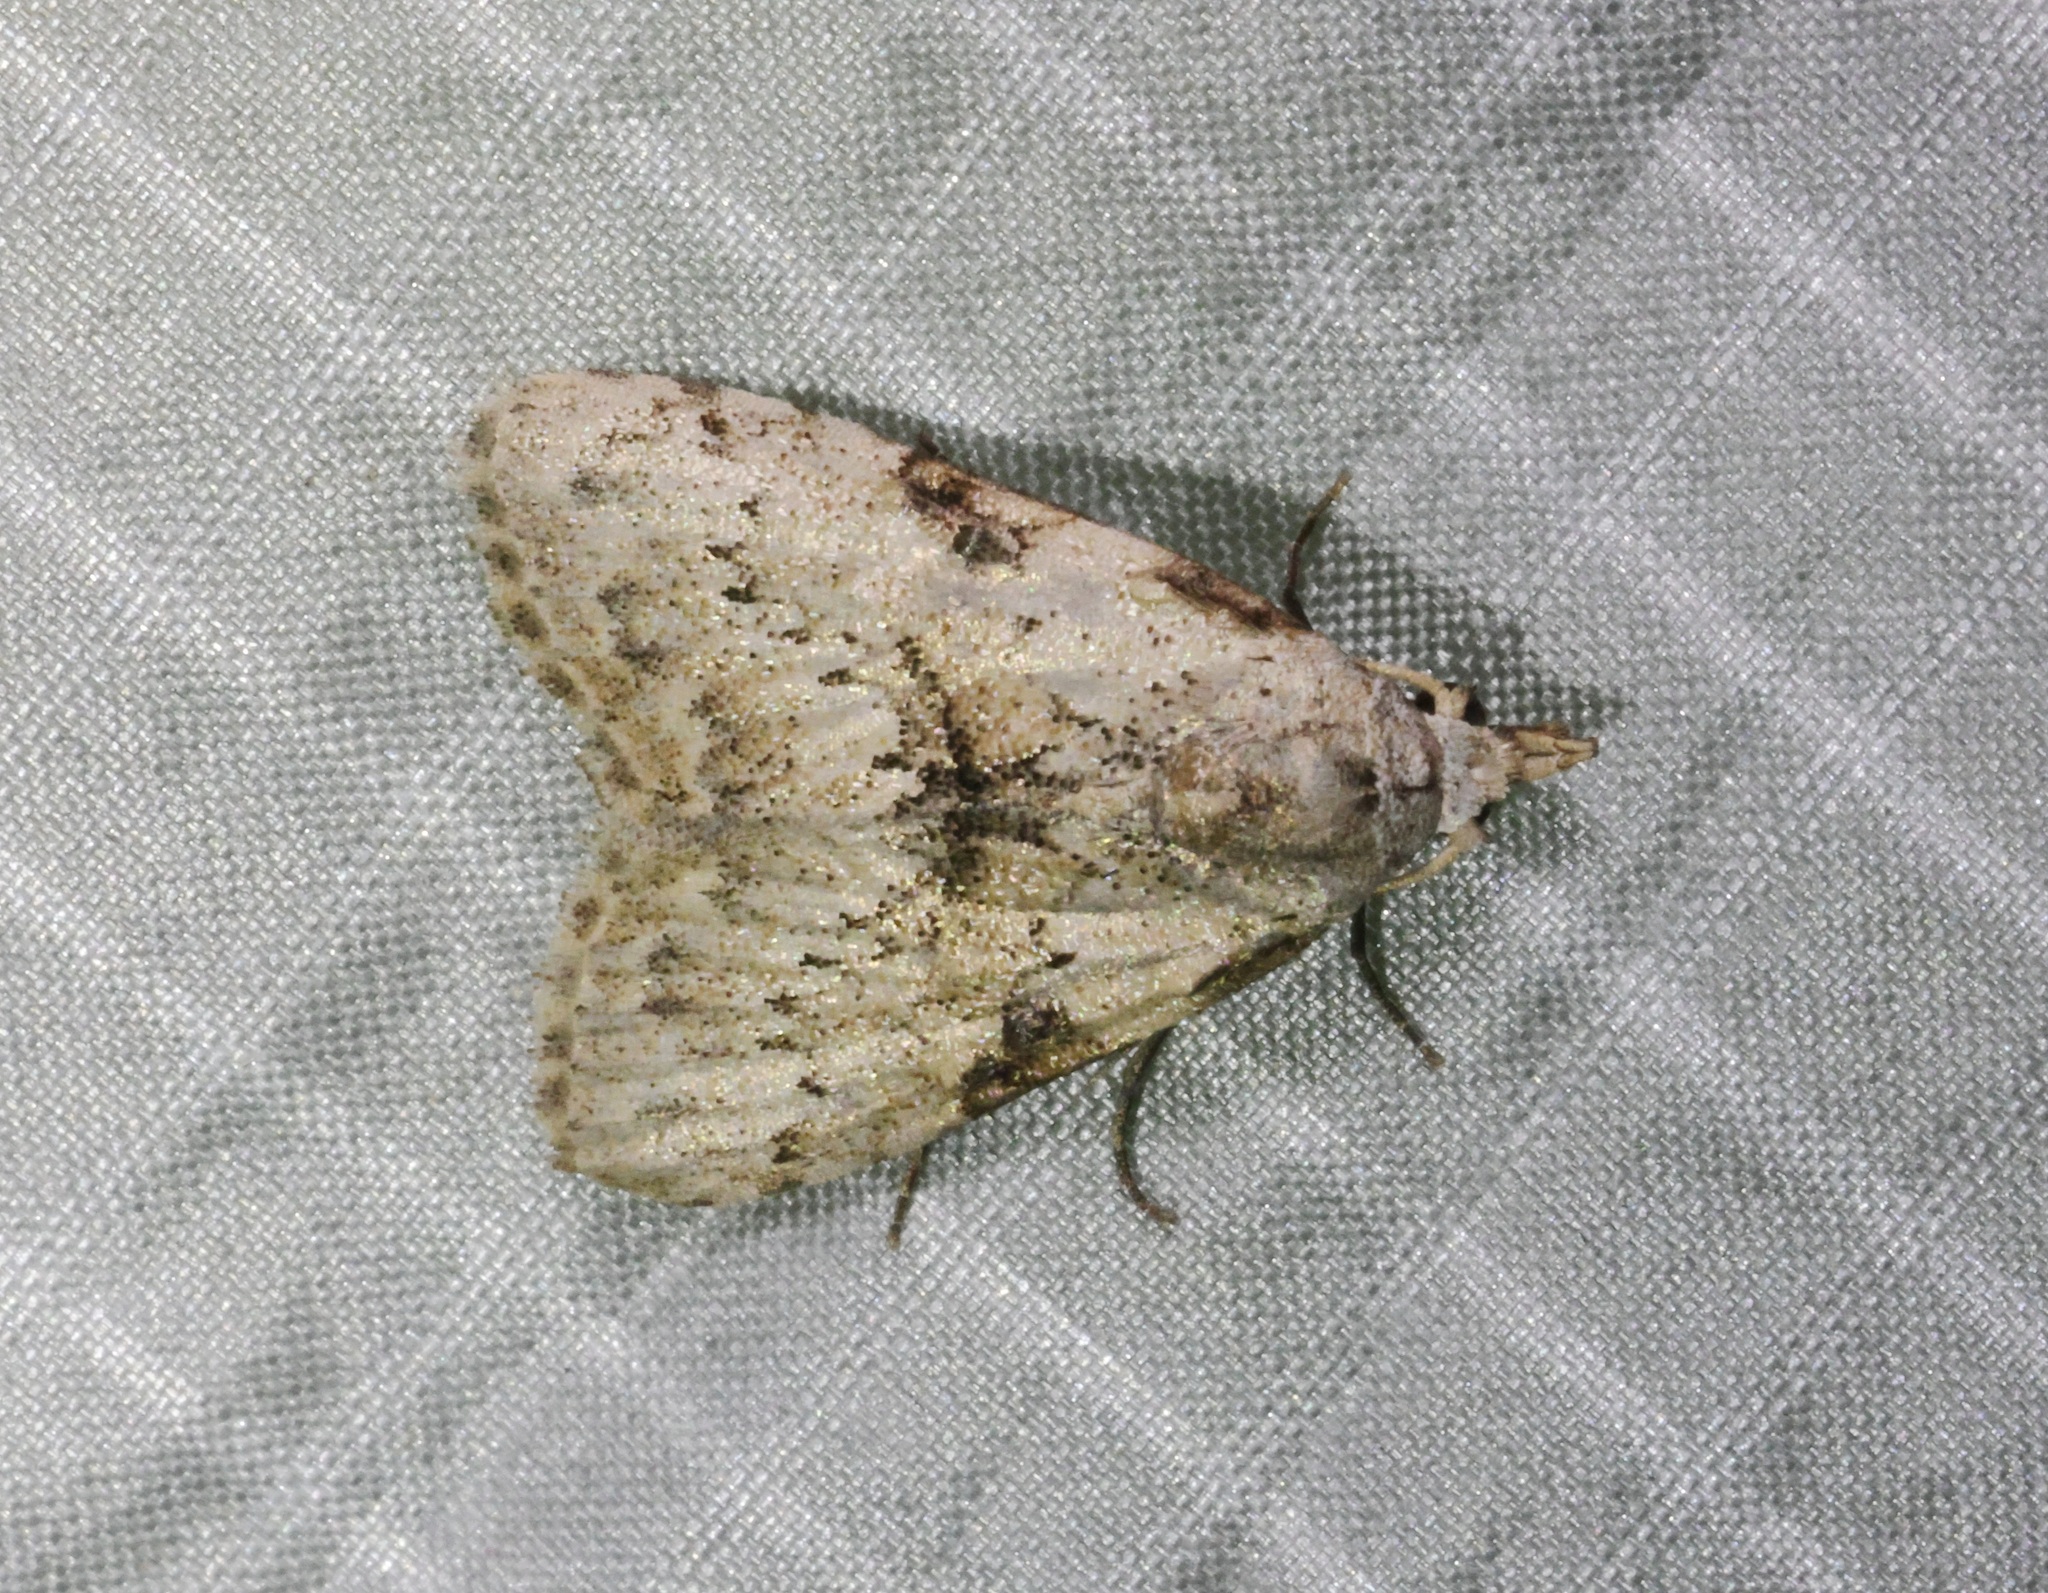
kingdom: Animalia
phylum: Arthropoda
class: Insecta
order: Lepidoptera
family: Nolidae
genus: Manoba
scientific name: Manoba tristicta
